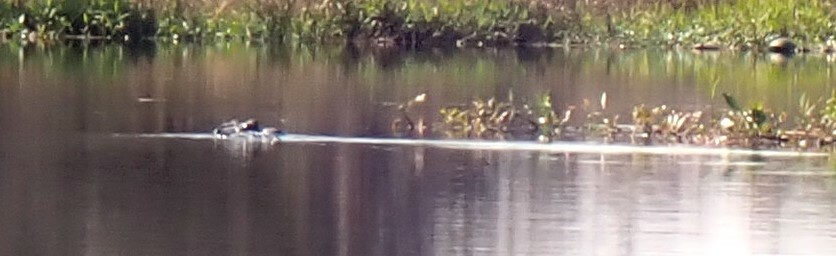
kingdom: Animalia
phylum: Chordata
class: Crocodylia
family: Alligatoridae
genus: Alligator
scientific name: Alligator mississippiensis
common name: American alligator
